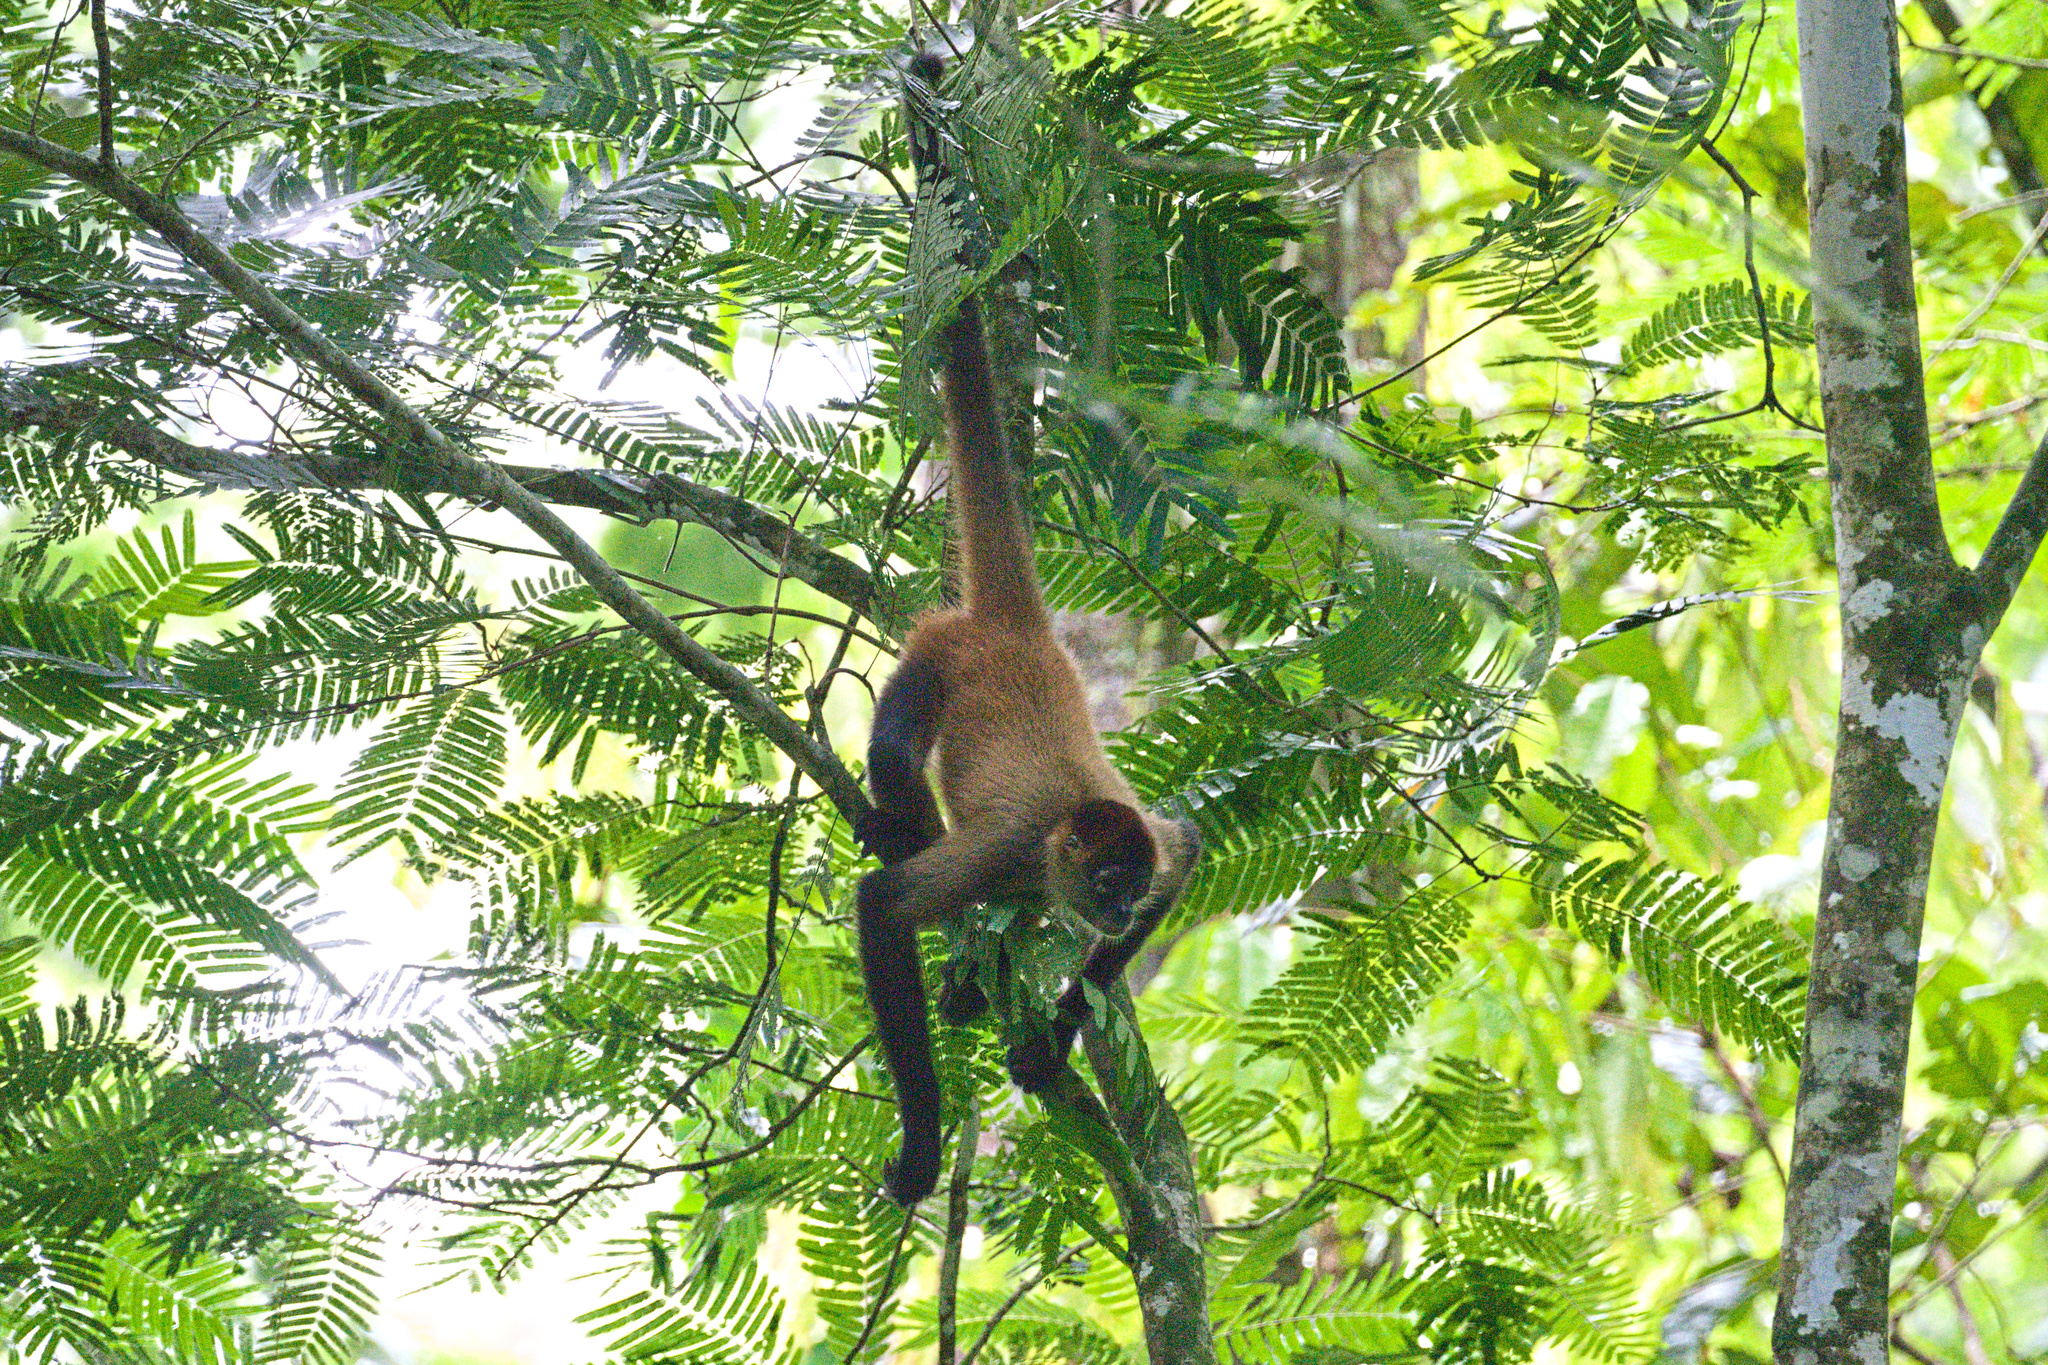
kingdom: Animalia
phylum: Chordata
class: Mammalia
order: Primates
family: Atelidae
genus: Ateles
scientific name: Ateles geoffroyi
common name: Black-handed spider monkey
